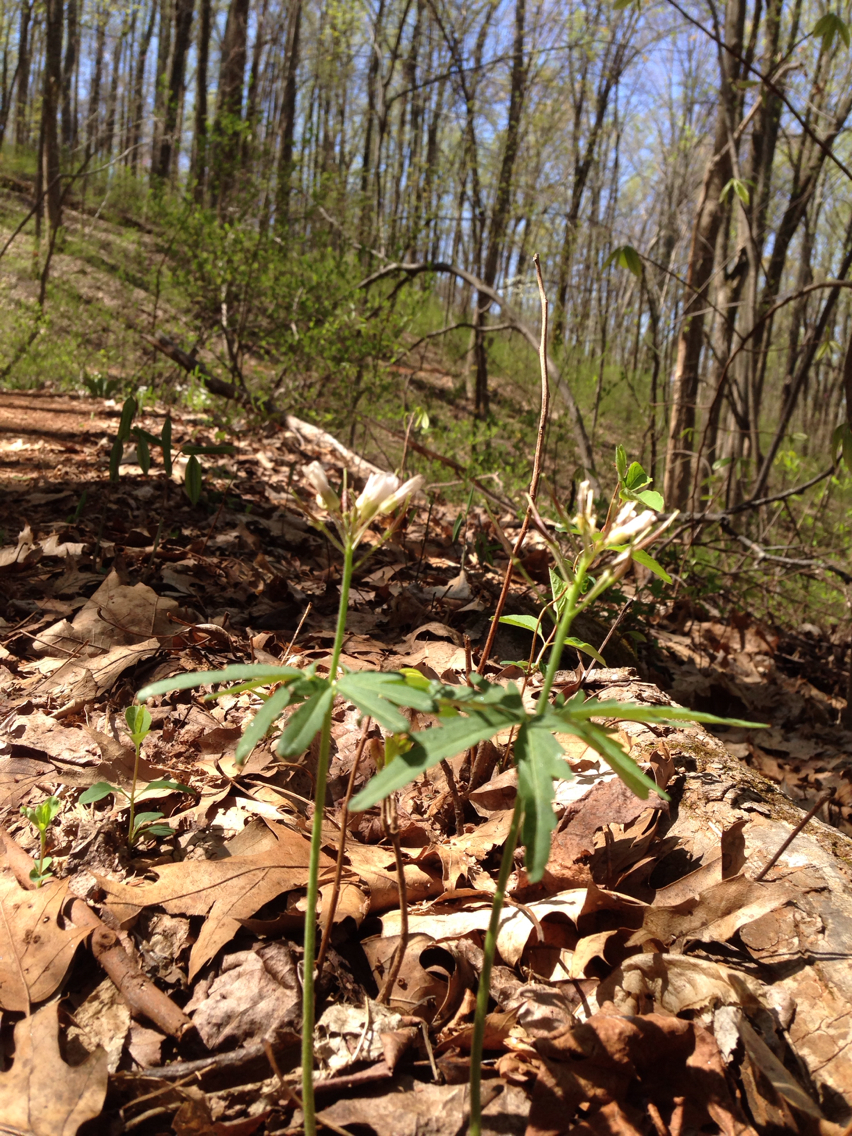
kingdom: Plantae
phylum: Tracheophyta
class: Magnoliopsida
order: Brassicales
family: Brassicaceae
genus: Cardamine
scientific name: Cardamine concatenata
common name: Cut-leaf toothcup
